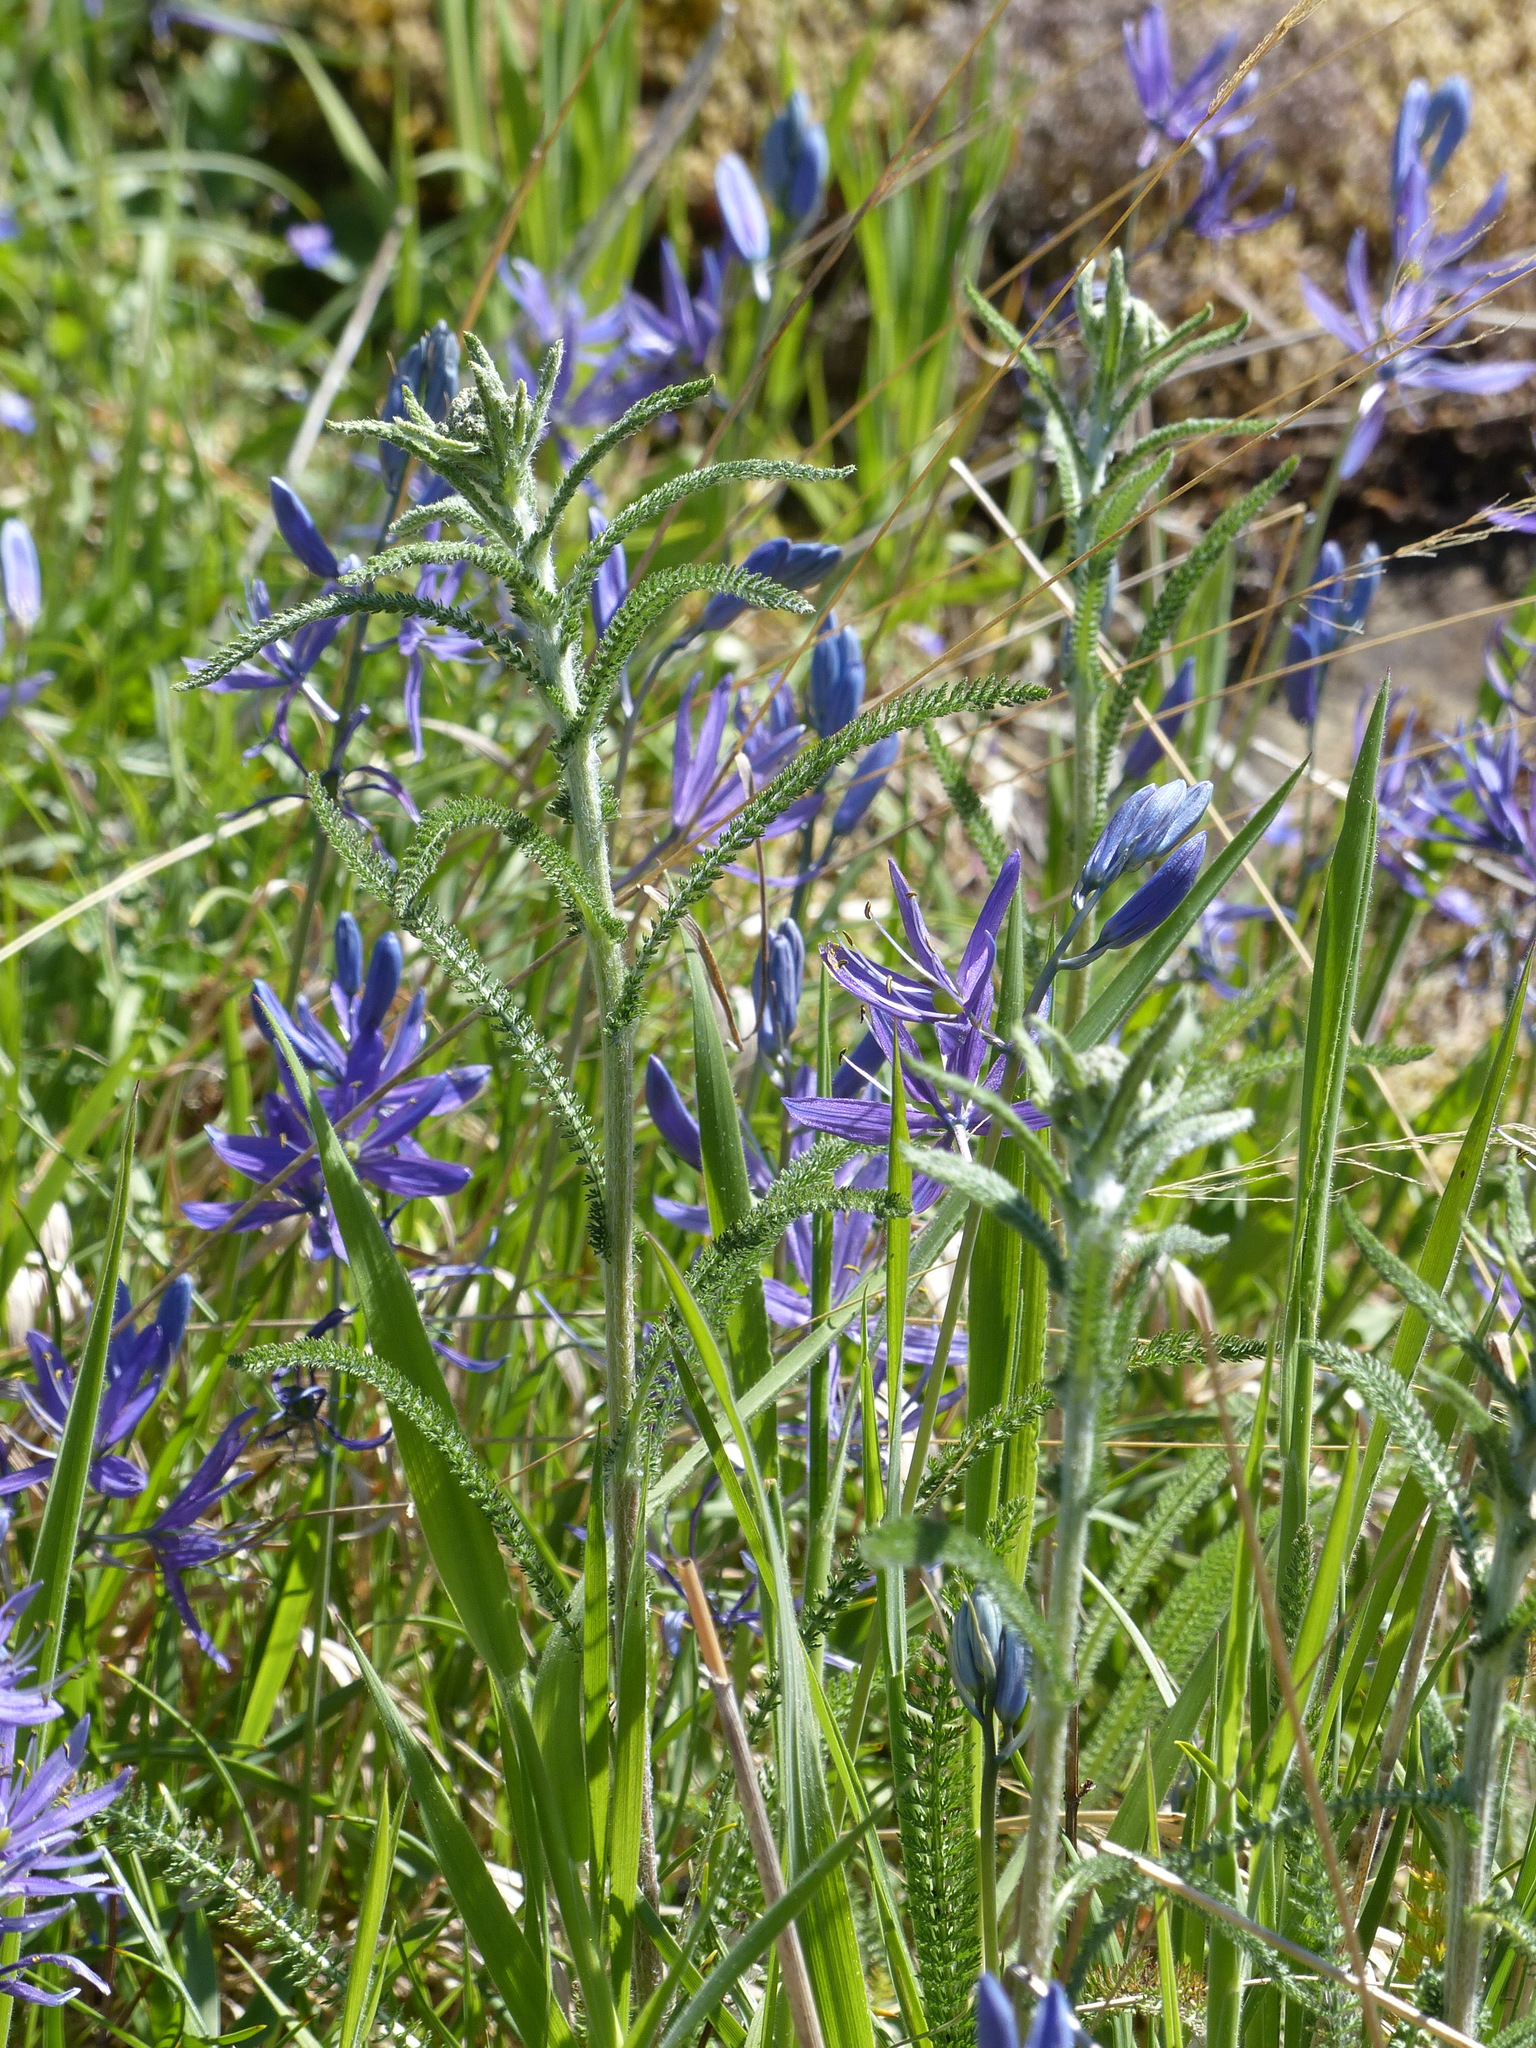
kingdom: Plantae
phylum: Tracheophyta
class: Magnoliopsida
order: Asterales
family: Asteraceae
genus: Achillea
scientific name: Achillea millefolium
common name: Yarrow
